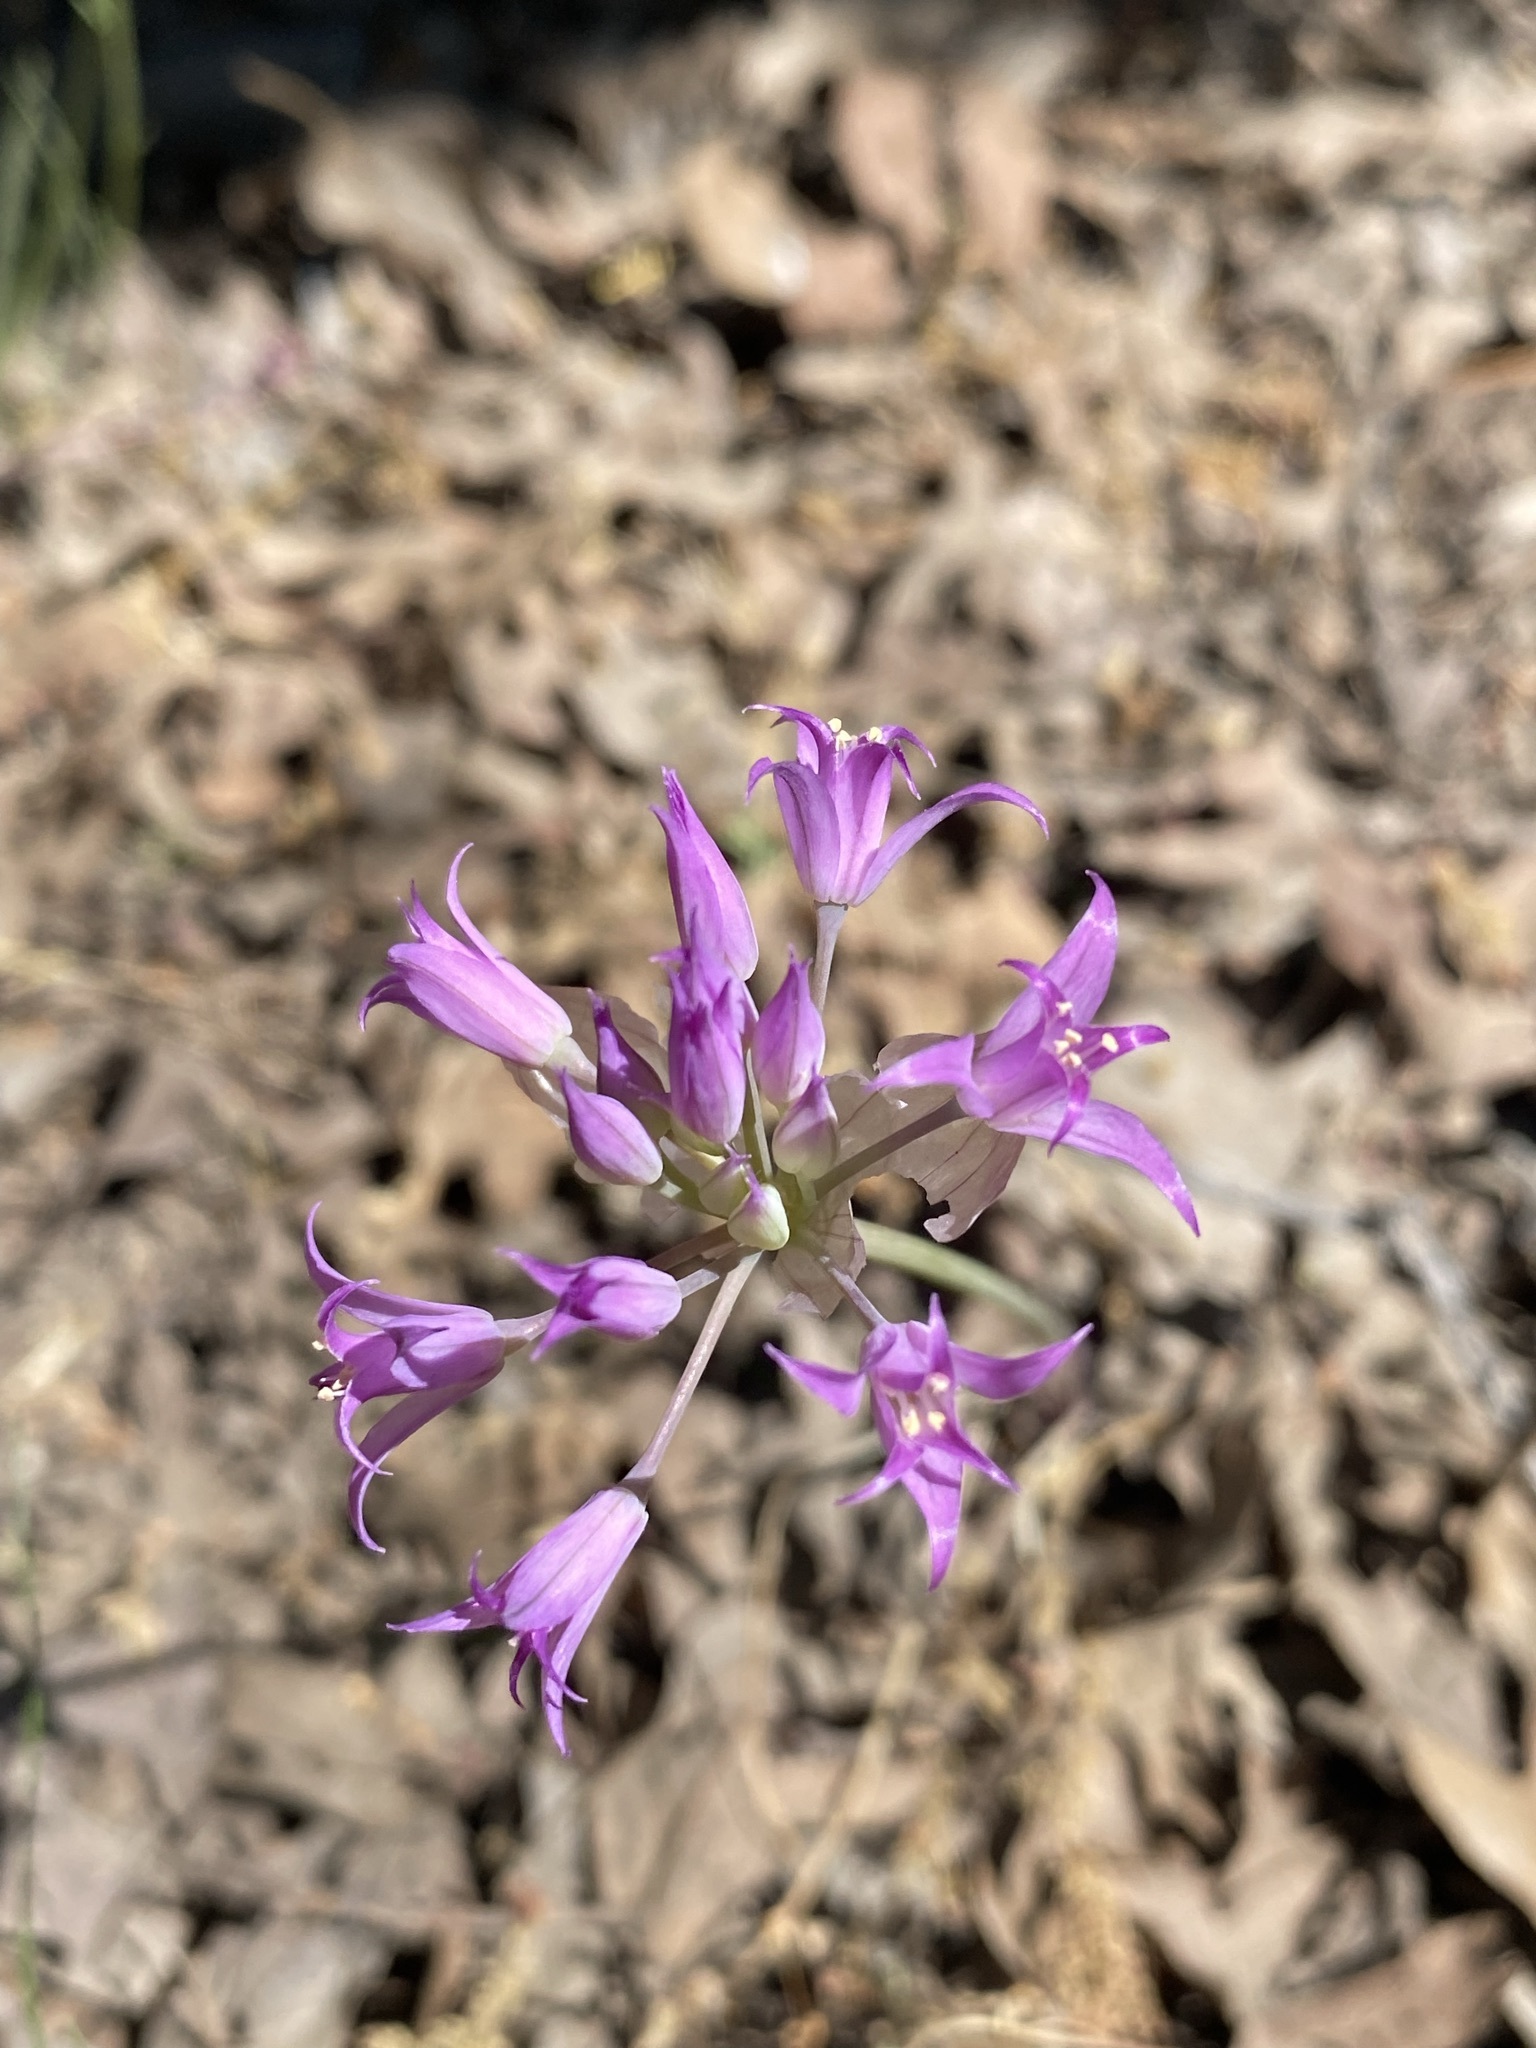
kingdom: Plantae
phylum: Tracheophyta
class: Liliopsida
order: Asparagales
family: Amaryllidaceae
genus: Allium
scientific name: Allium acuminatum
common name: Hooker's onion
